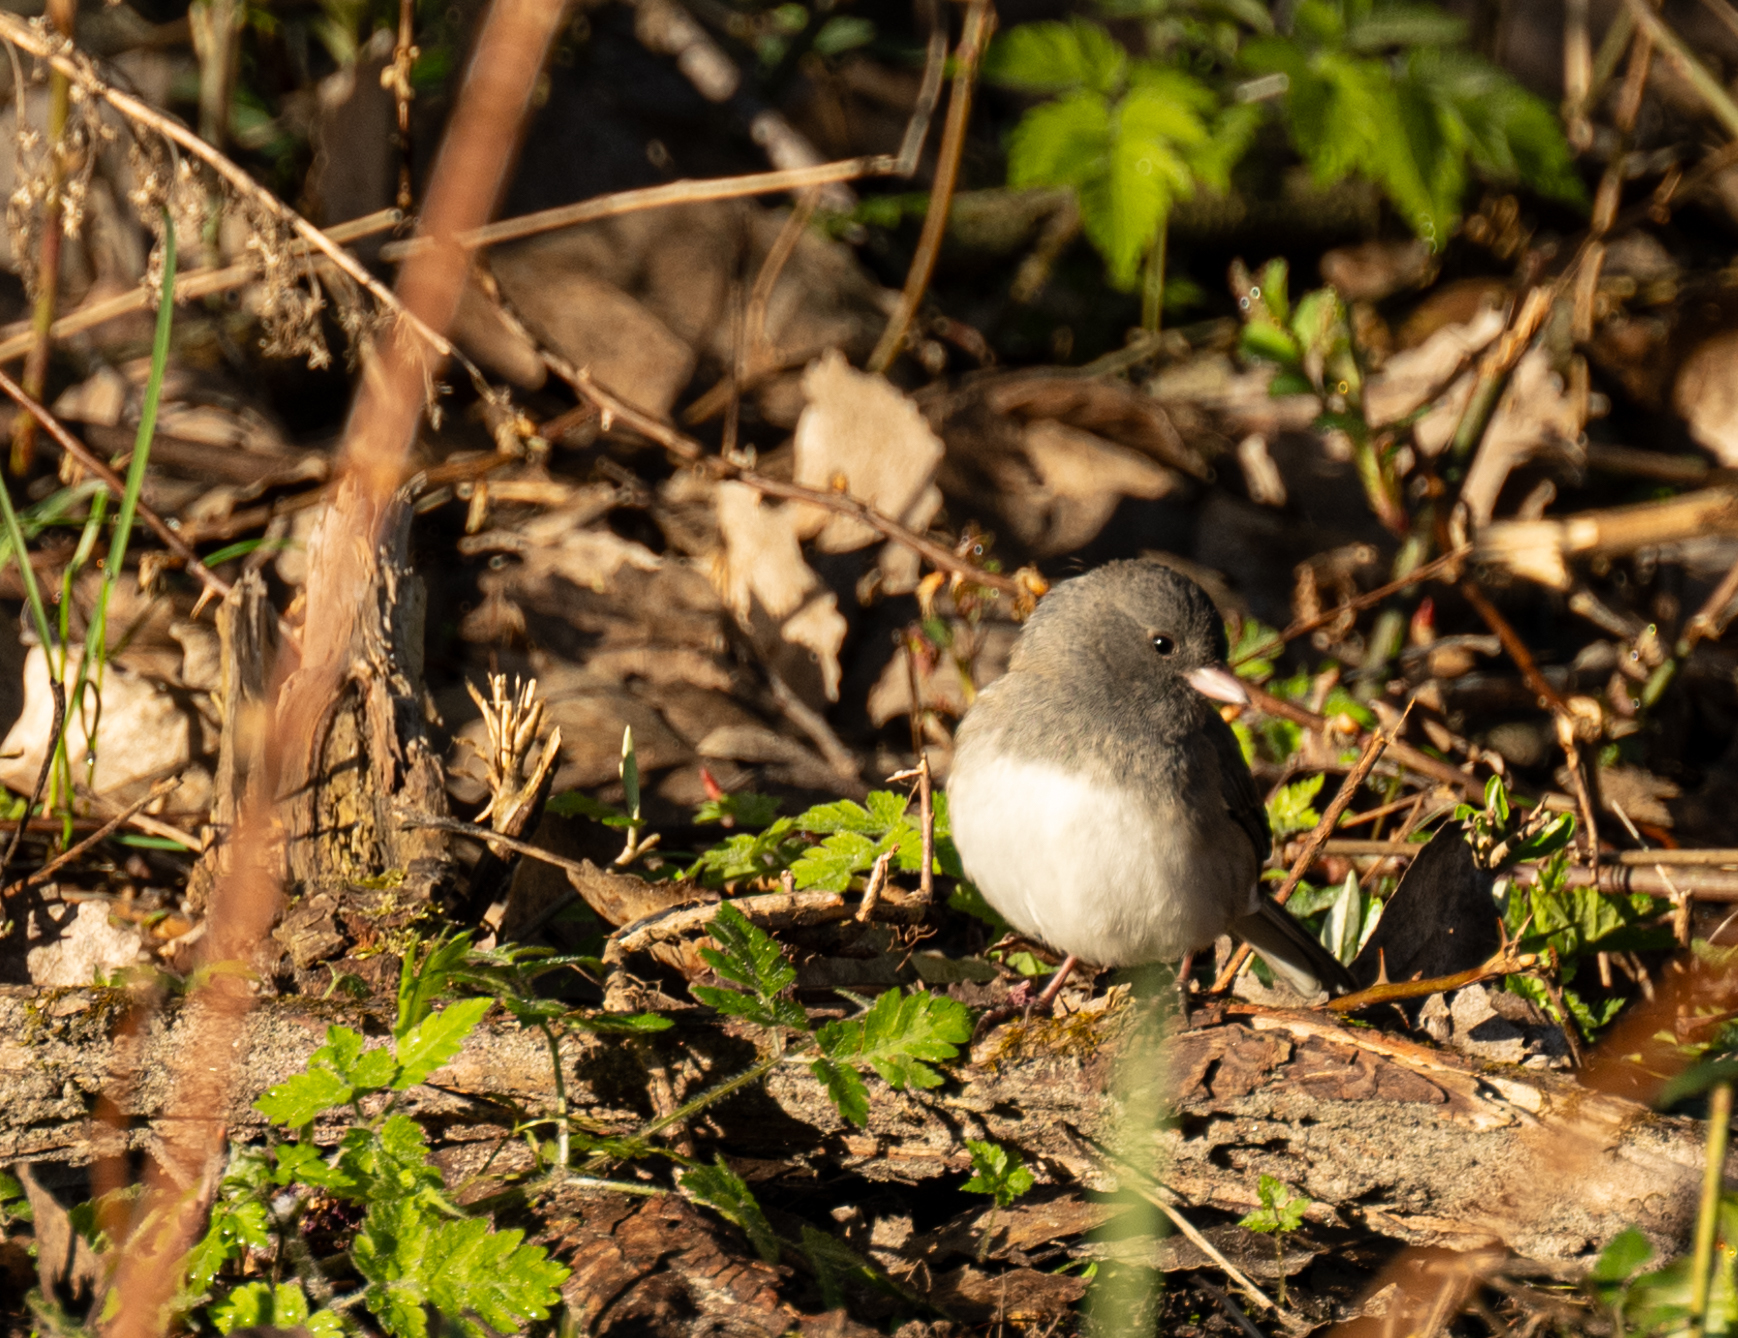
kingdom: Animalia
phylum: Chordata
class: Aves
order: Passeriformes
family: Passerellidae
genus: Junco
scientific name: Junco hyemalis
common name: Dark-eyed junco
